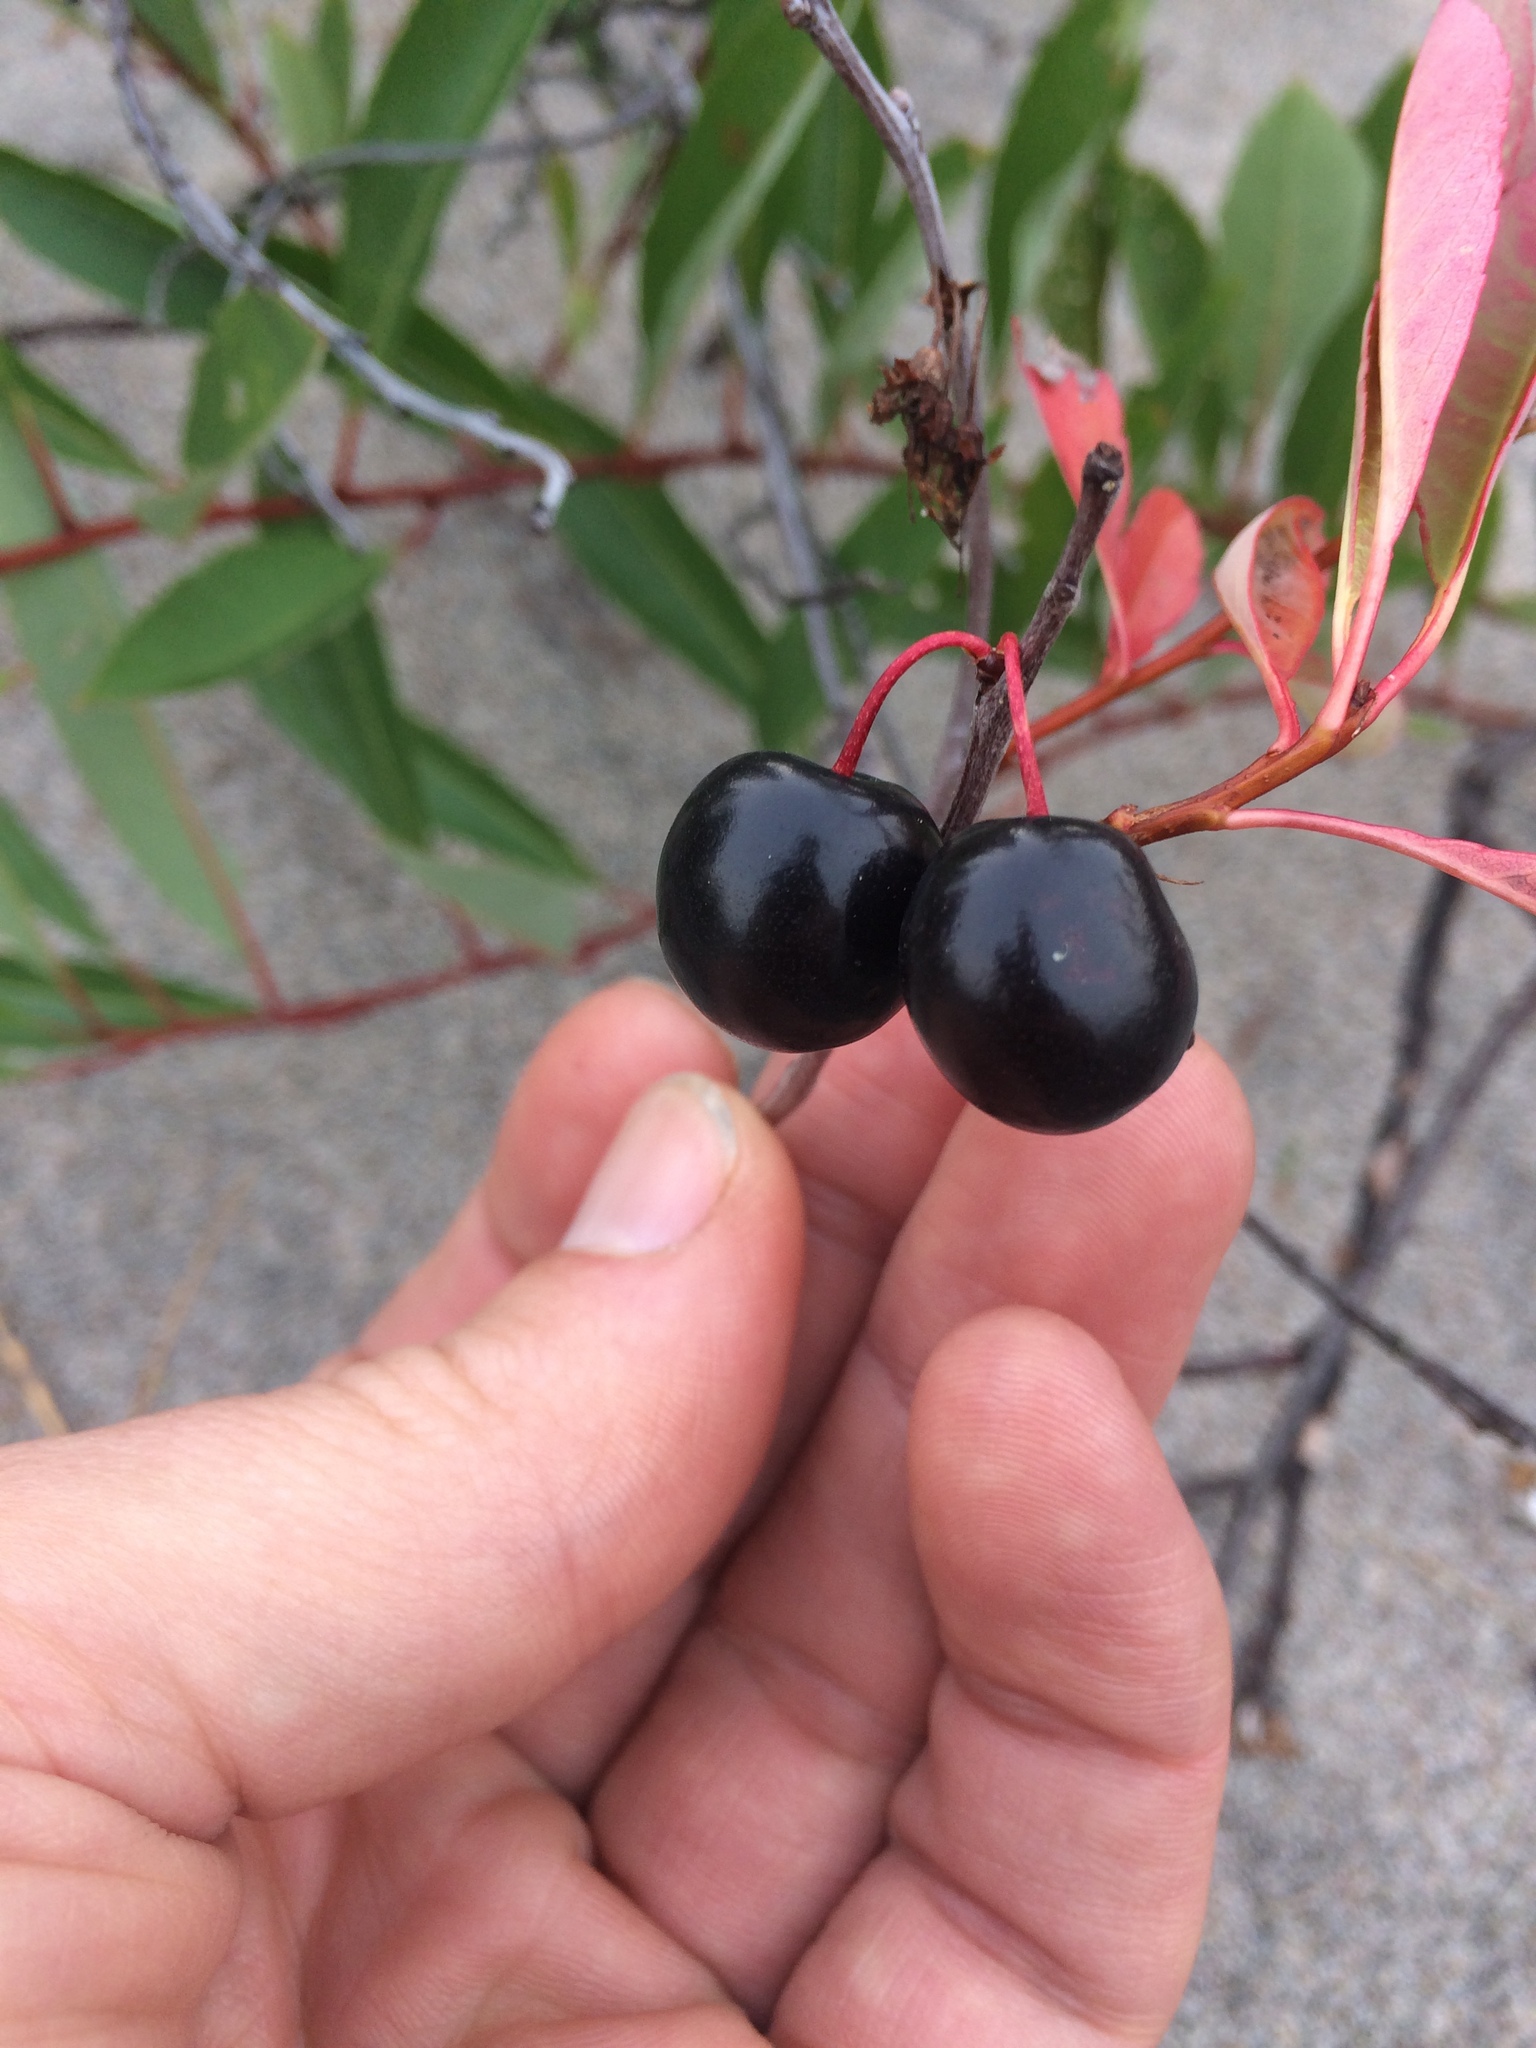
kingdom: Plantae
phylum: Tracheophyta
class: Magnoliopsida
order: Rosales
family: Rosaceae
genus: Prunus
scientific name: Prunus pumila
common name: Dwarf cherry
